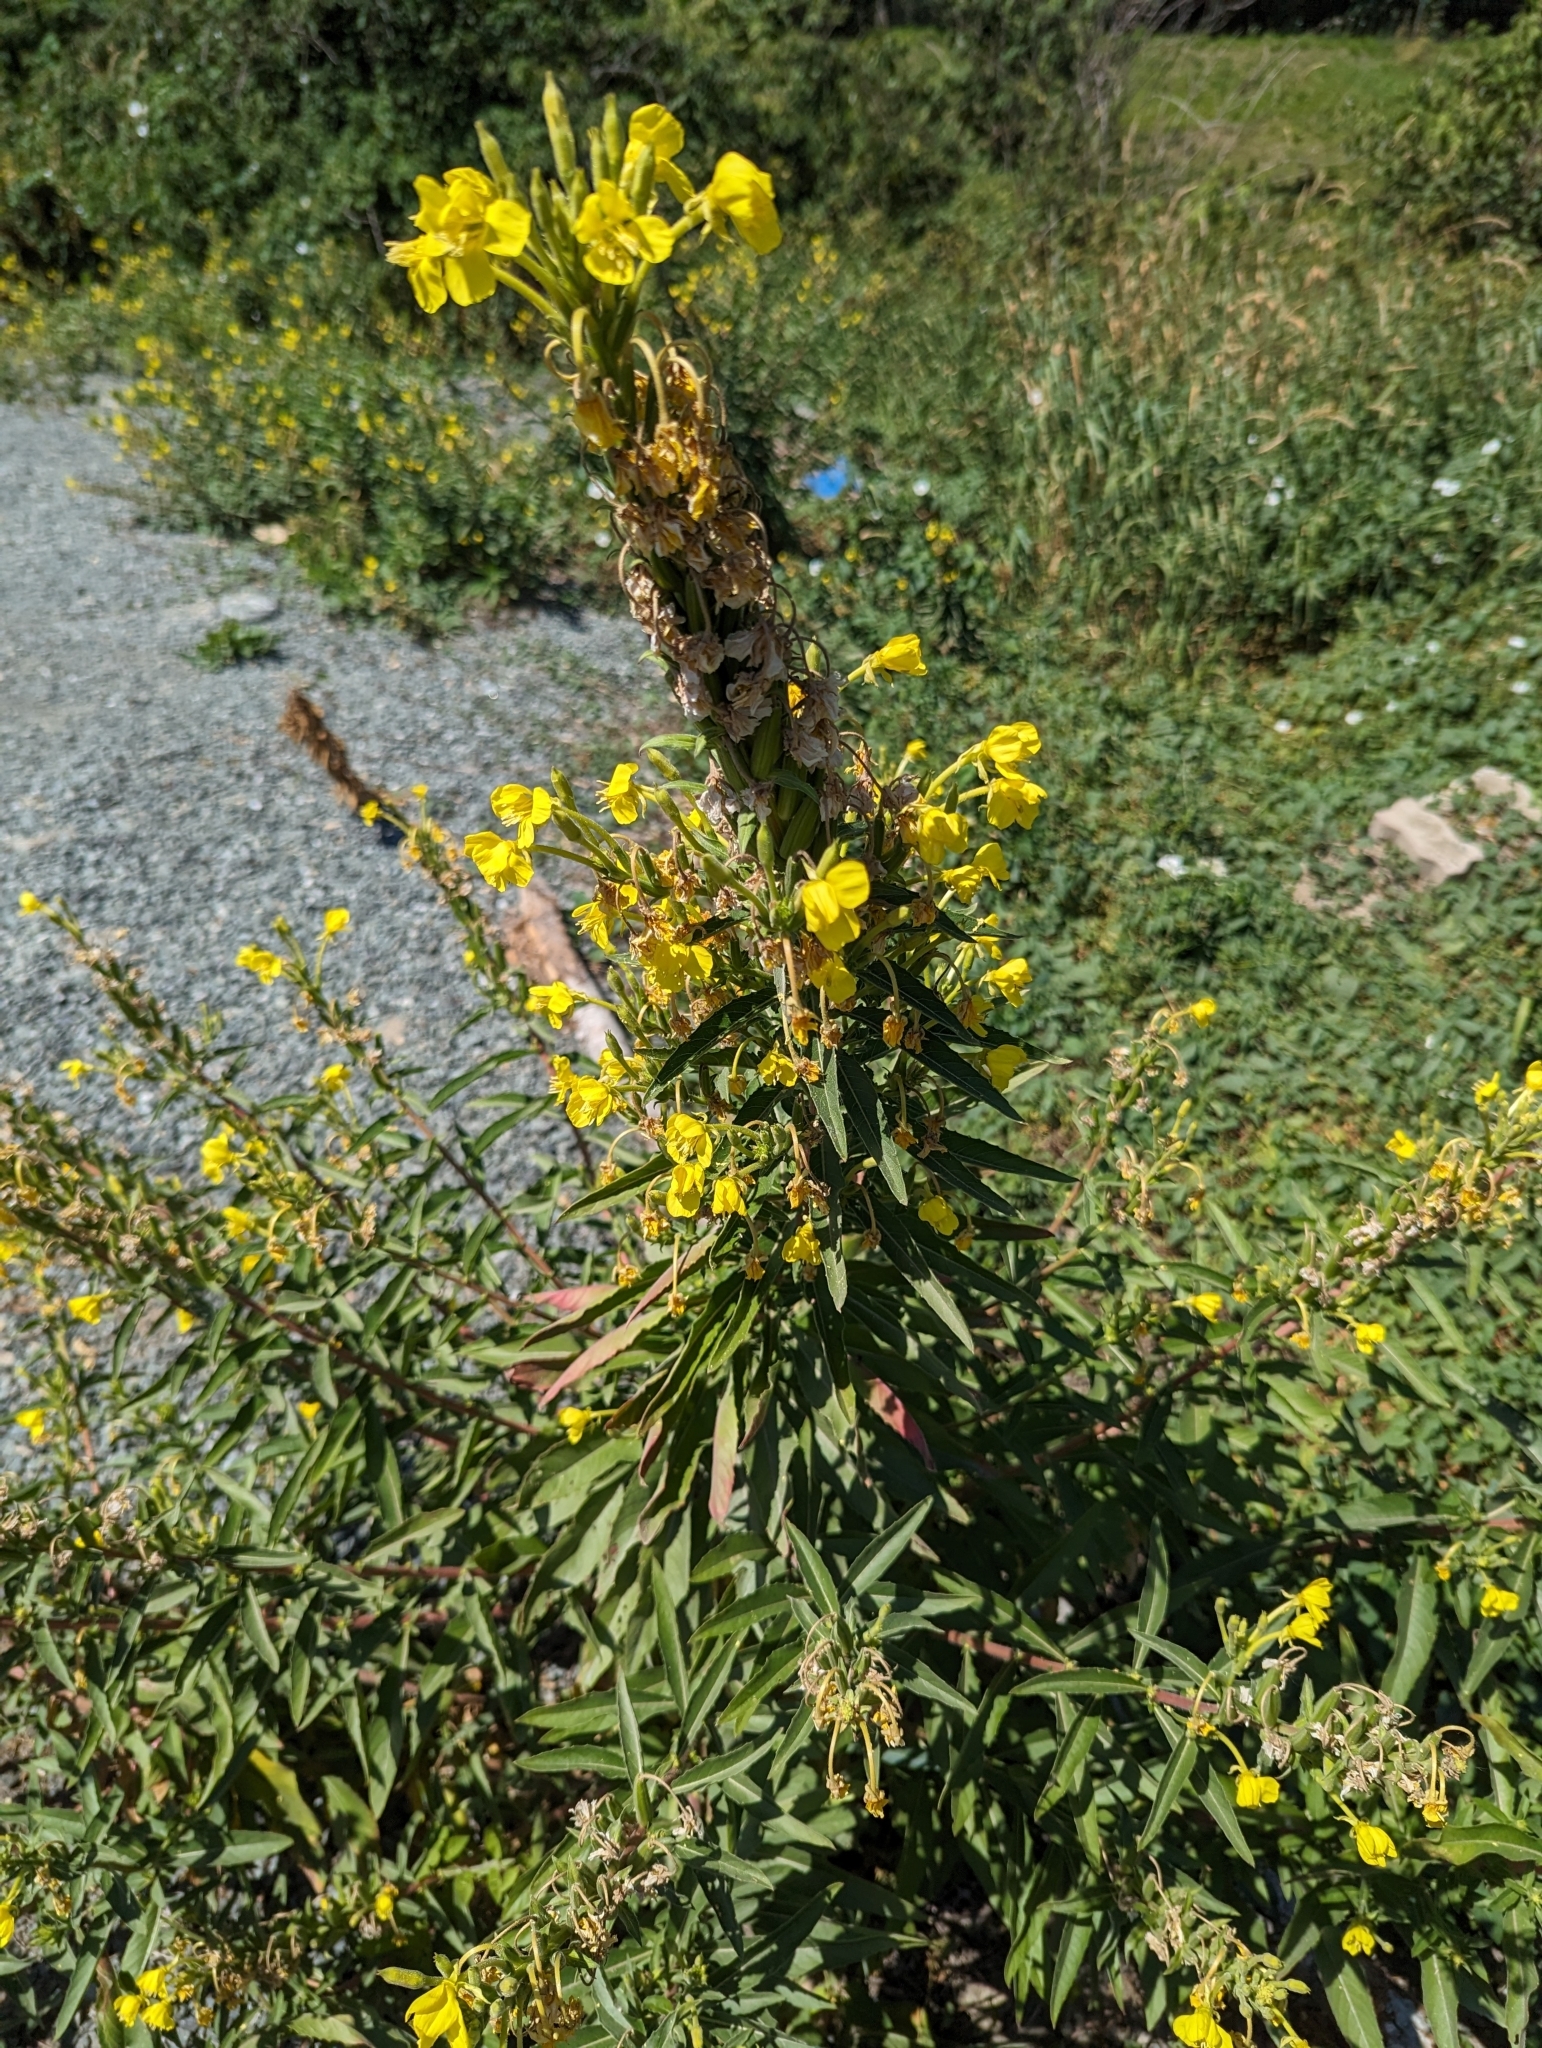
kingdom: Plantae
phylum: Tracheophyta
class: Magnoliopsida
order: Myrtales
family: Onagraceae
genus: Oenothera
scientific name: Oenothera biennis
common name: Common evening-primrose
